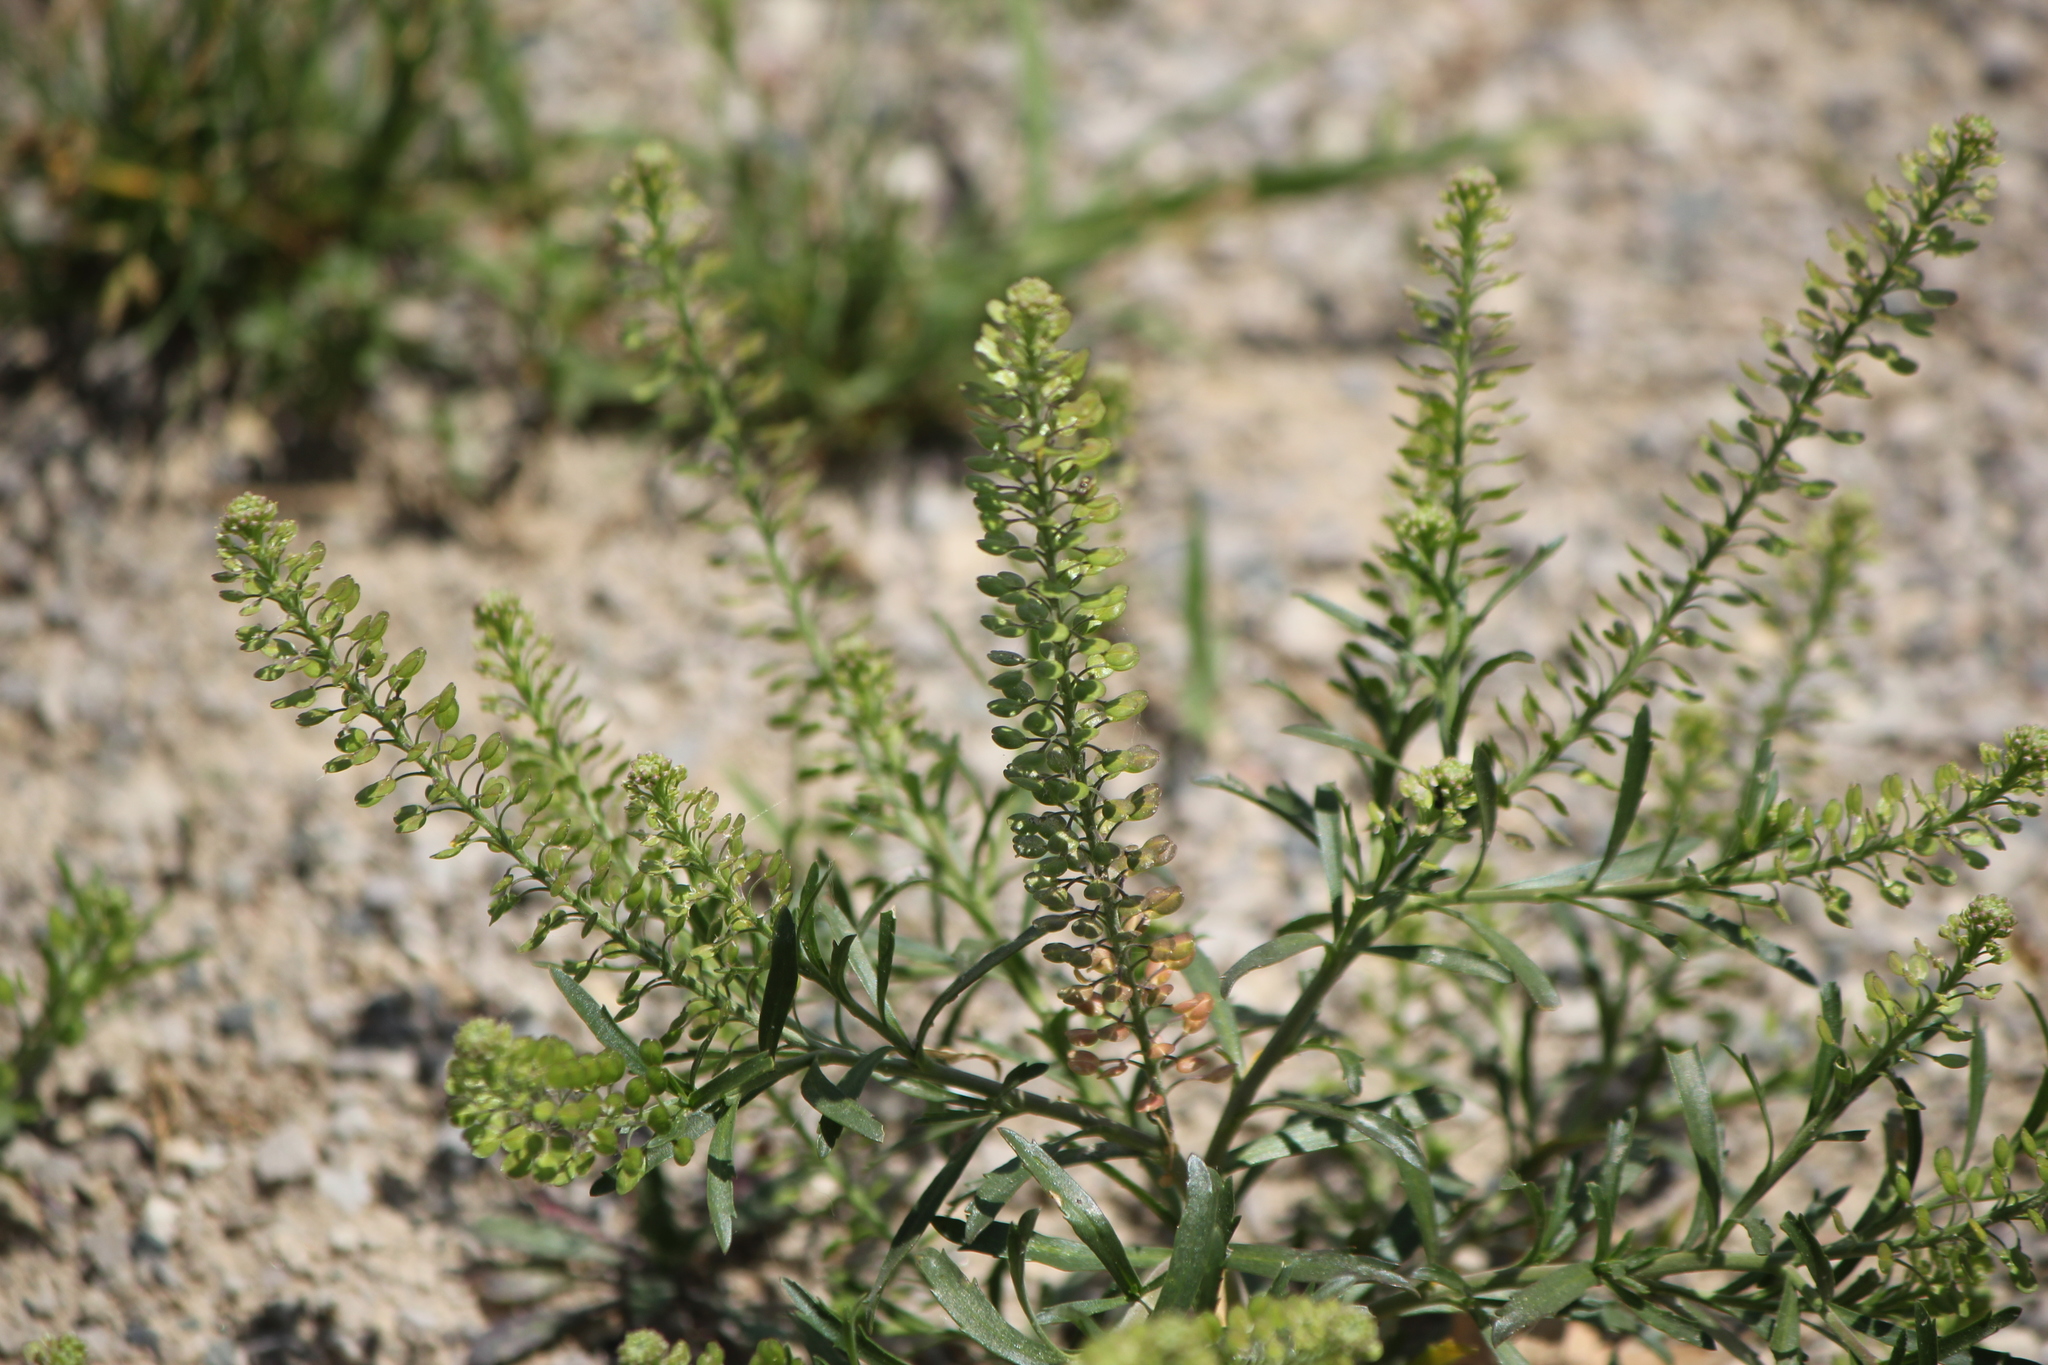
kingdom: Plantae
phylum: Tracheophyta
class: Magnoliopsida
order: Brassicales
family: Brassicaceae
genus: Lepidium
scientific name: Lepidium densiflorum
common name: Miner's pepperwort
